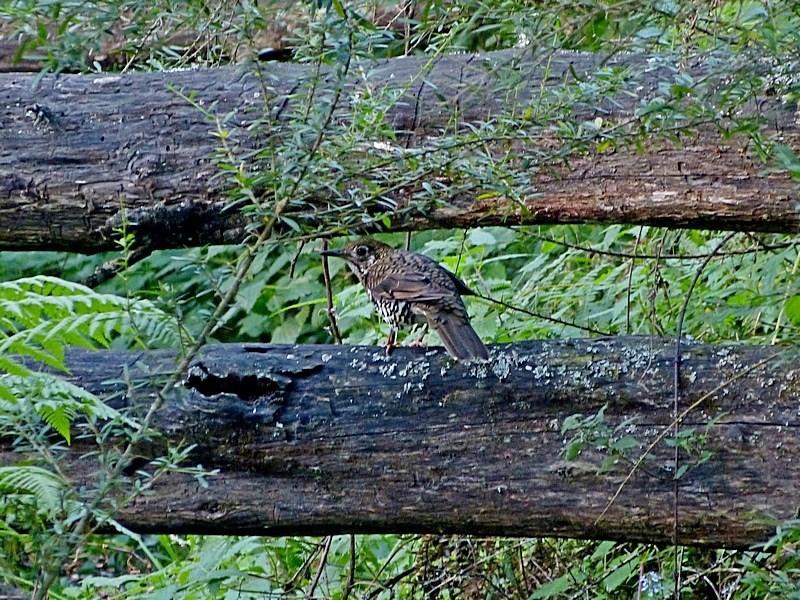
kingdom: Animalia
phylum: Chordata
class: Aves
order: Passeriformes
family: Turdidae
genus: Zoothera
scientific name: Zoothera lunulata
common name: Bassian thrush
